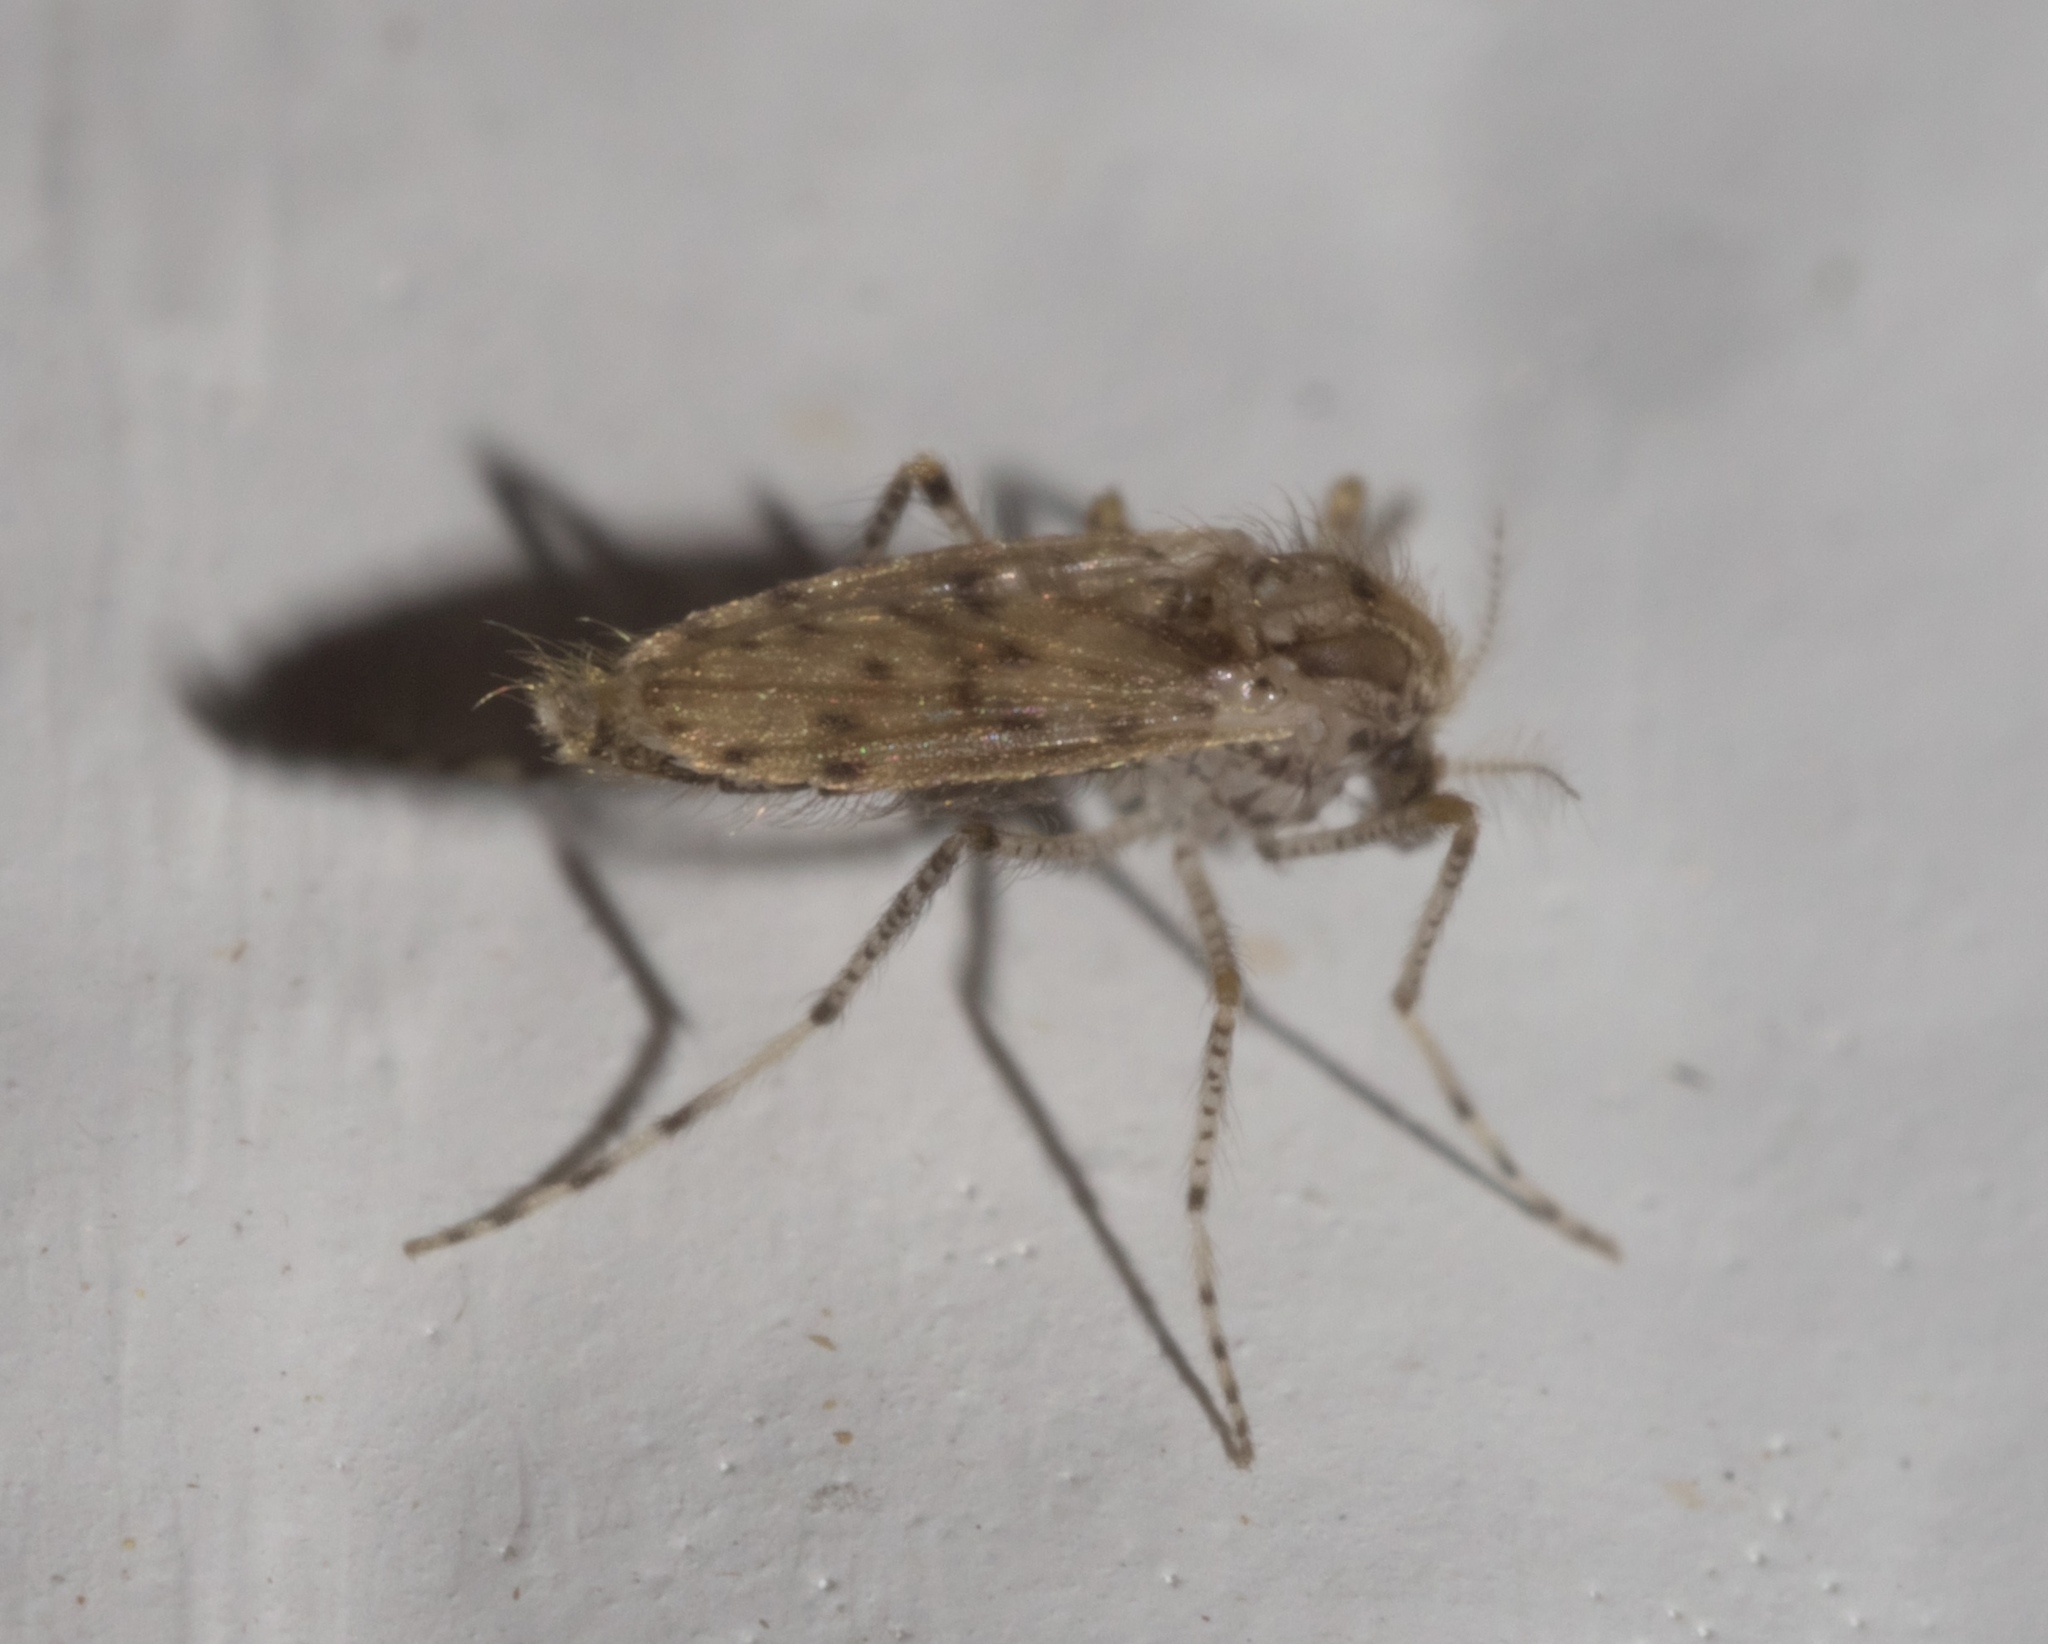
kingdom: Animalia
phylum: Arthropoda
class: Insecta
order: Diptera
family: Chaoboridae
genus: Chaoborus
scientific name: Chaoborus punctipennis
